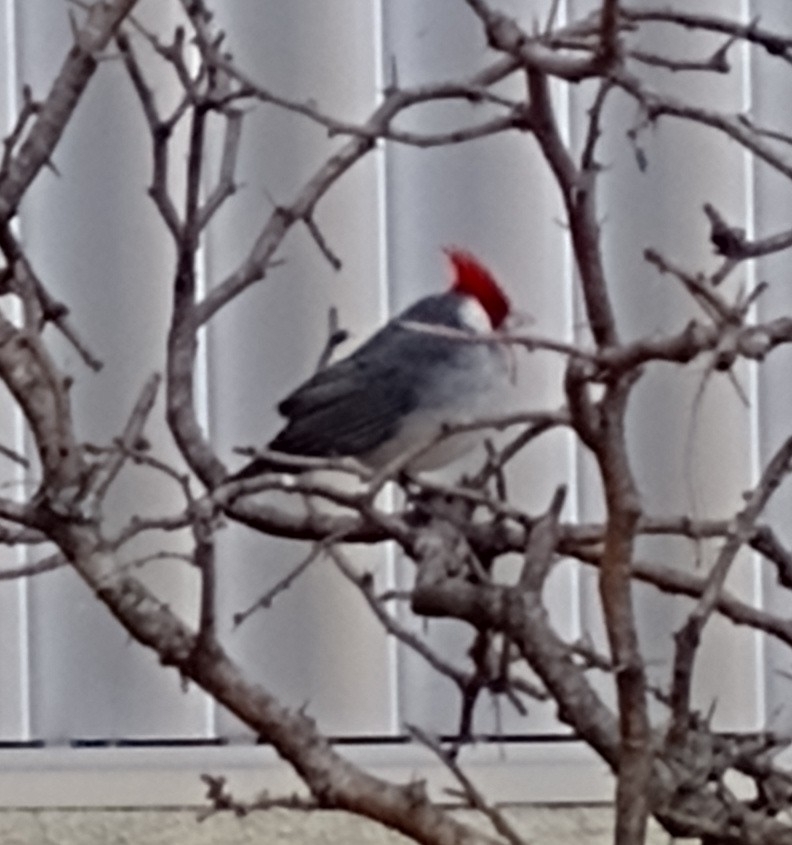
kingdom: Animalia
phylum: Chordata
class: Aves
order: Passeriformes
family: Thraupidae
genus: Paroaria
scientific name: Paroaria coronata
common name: Red-crested cardinal
